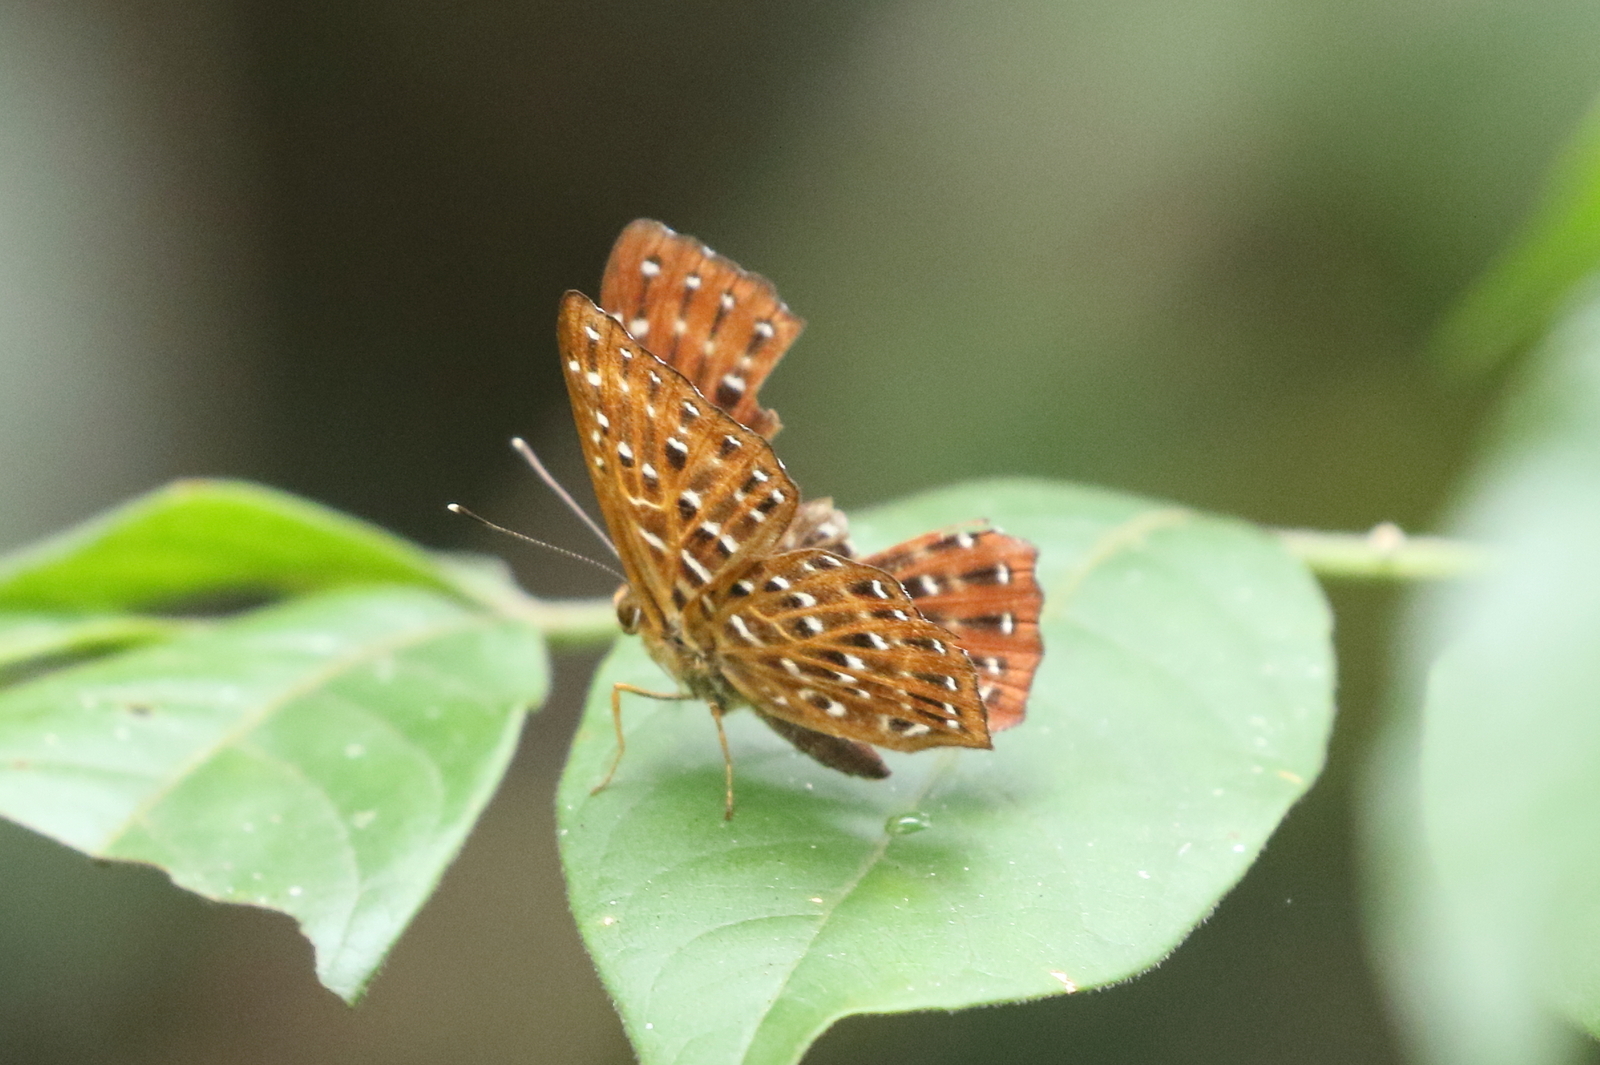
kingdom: Animalia
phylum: Arthropoda
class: Insecta
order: Lepidoptera
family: Riodinidae
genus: Zemeros
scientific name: Zemeros flegyas
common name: Punchinello
